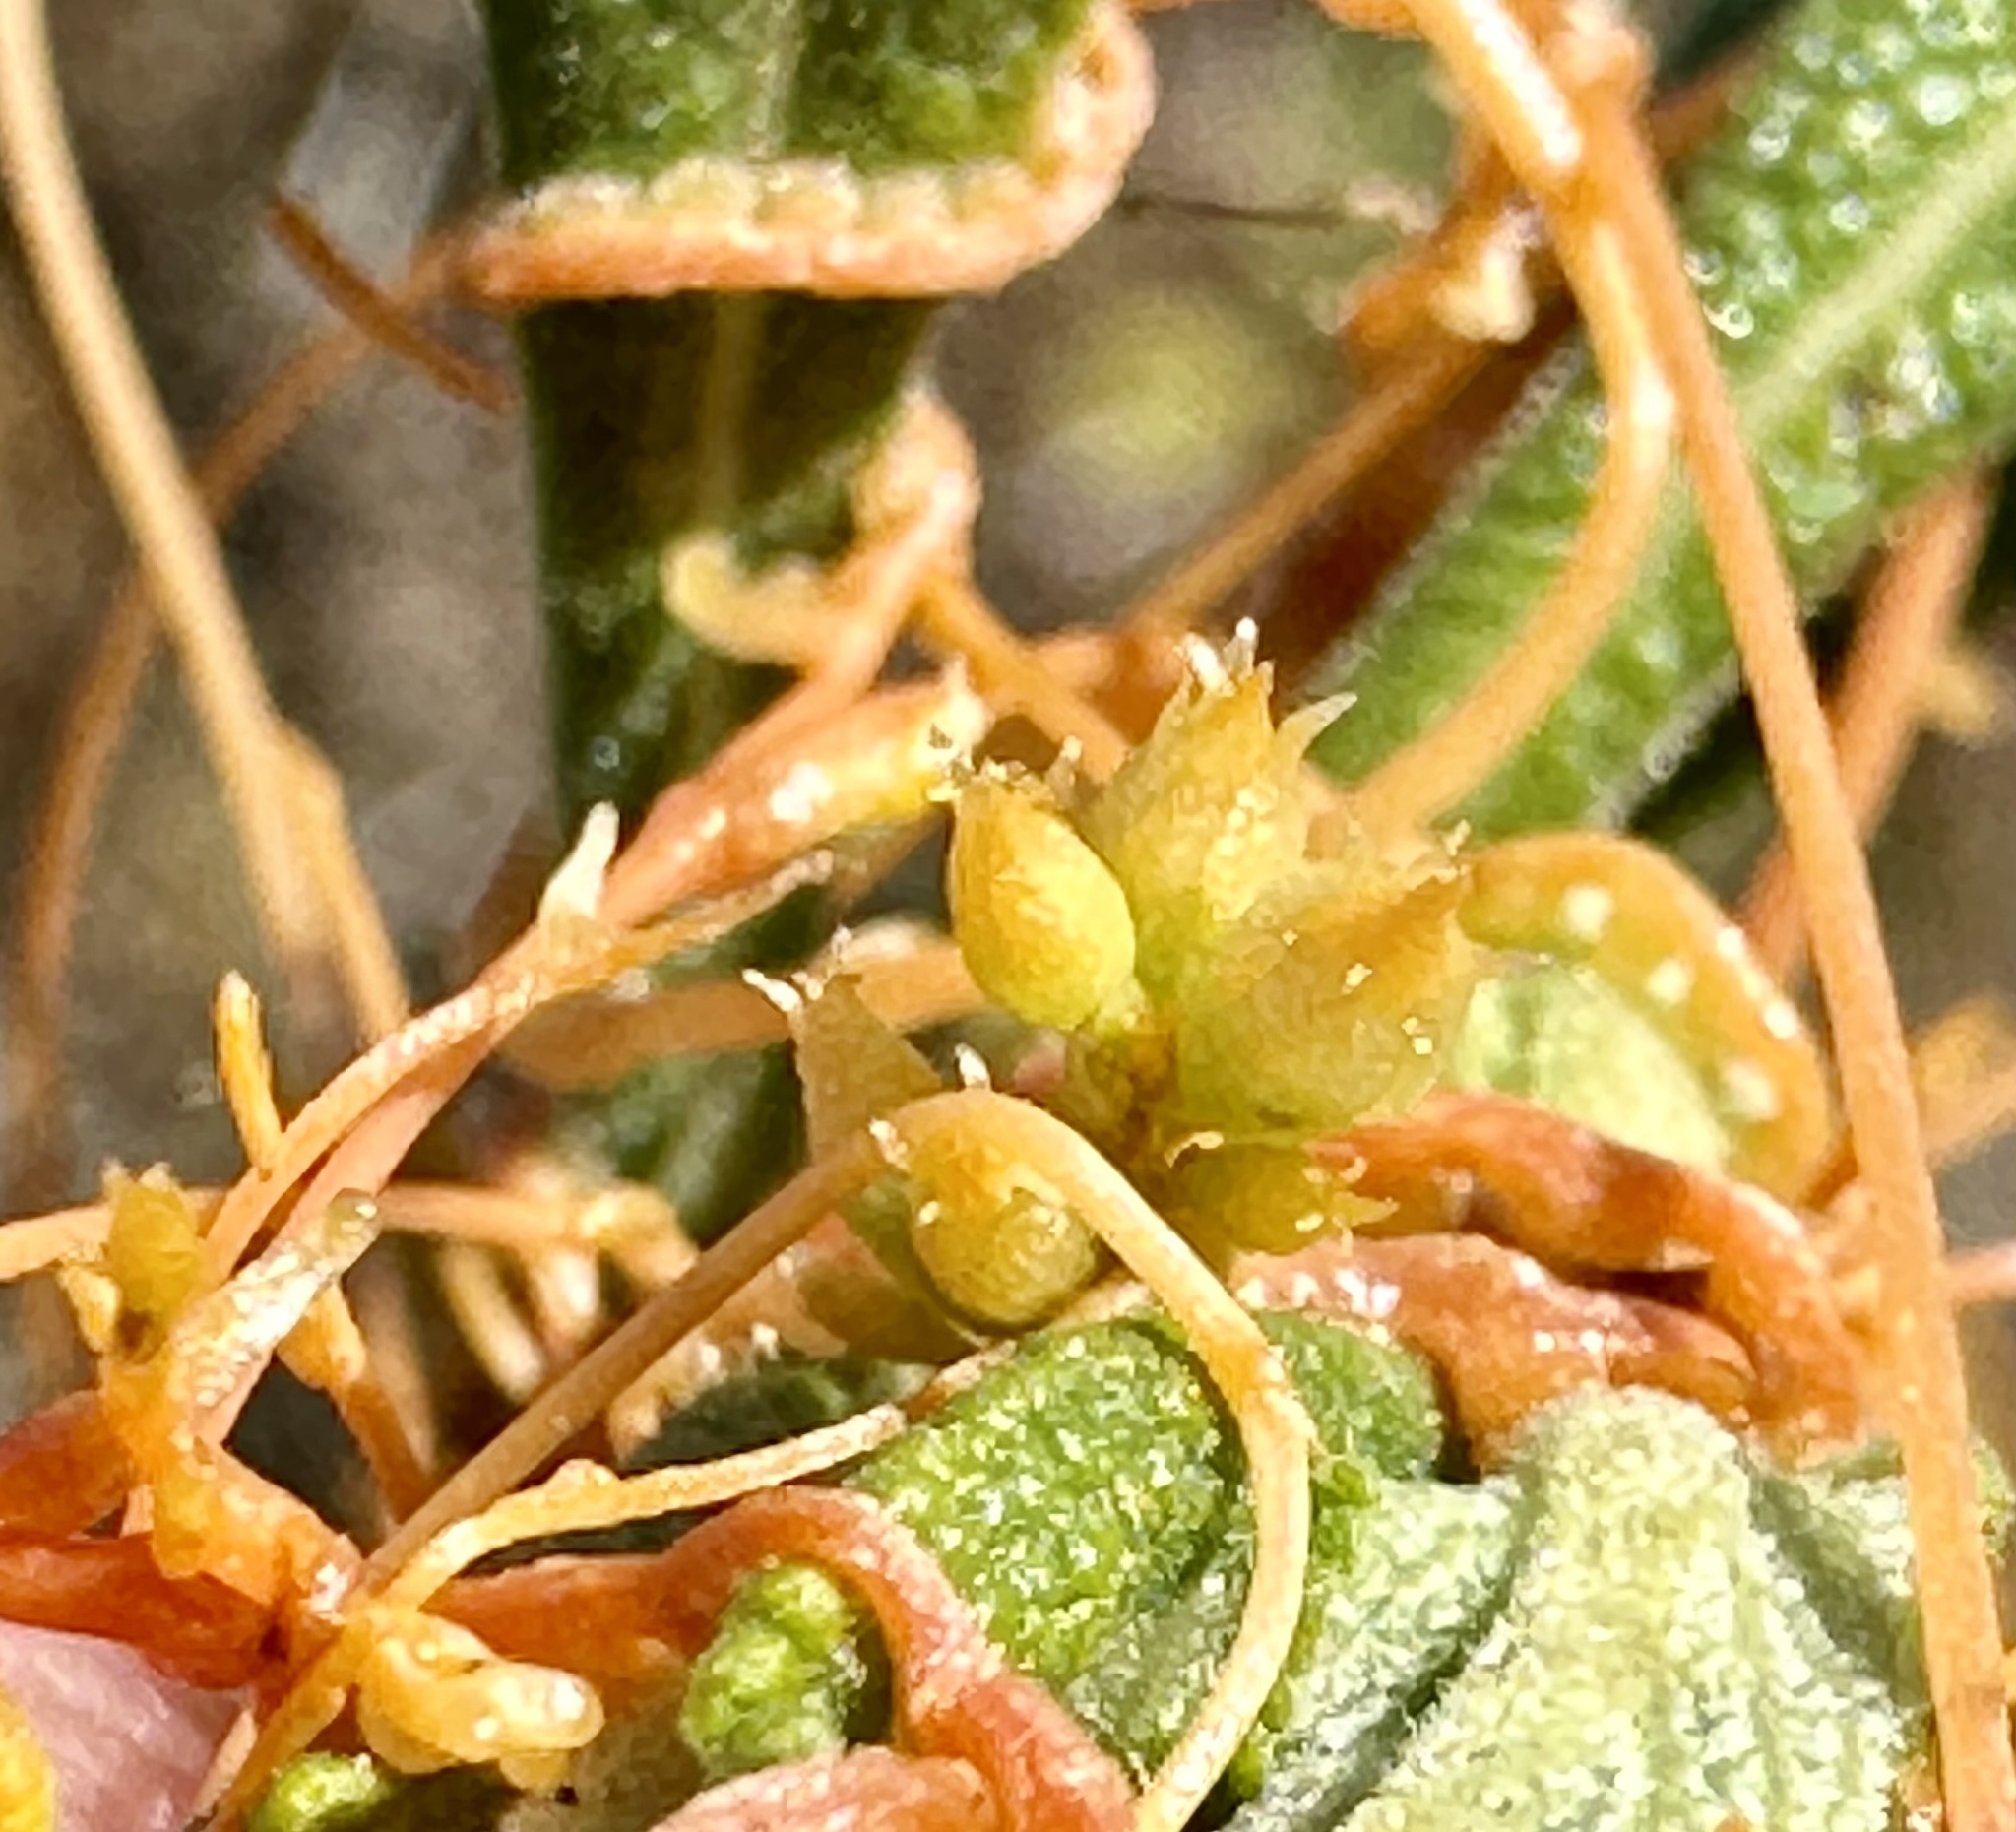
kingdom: Plantae
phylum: Tracheophyta
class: Magnoliopsida
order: Solanales
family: Convolvulaceae
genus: Cuscuta
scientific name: Cuscuta californica
